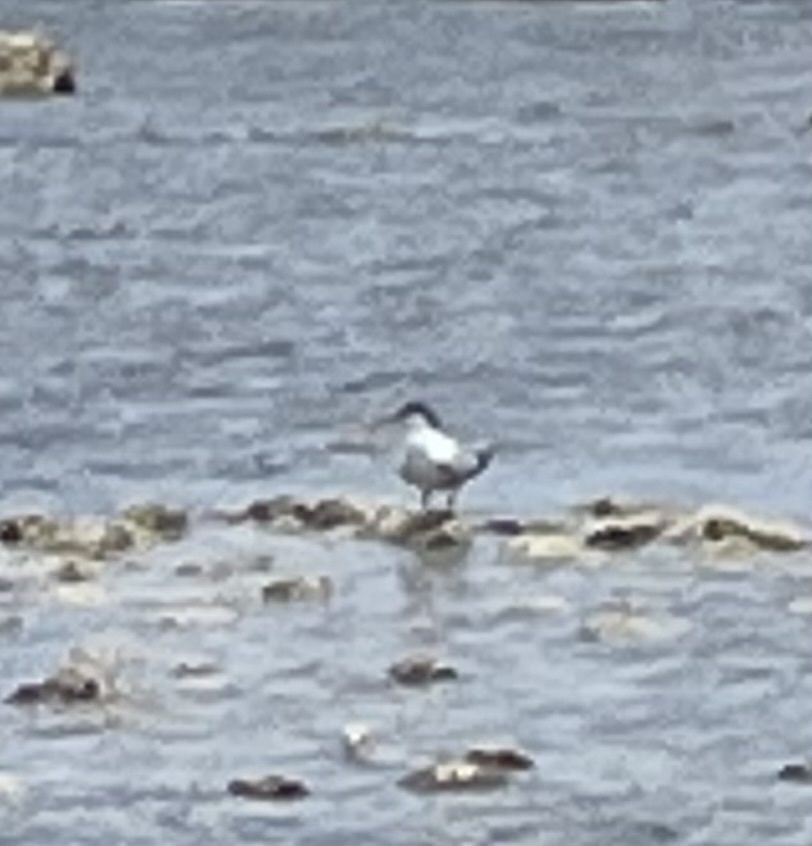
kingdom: Animalia
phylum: Chordata
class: Aves
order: Charadriiformes
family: Laridae
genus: Thalasseus
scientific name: Thalasseus sandvicensis
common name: Sandwich tern
